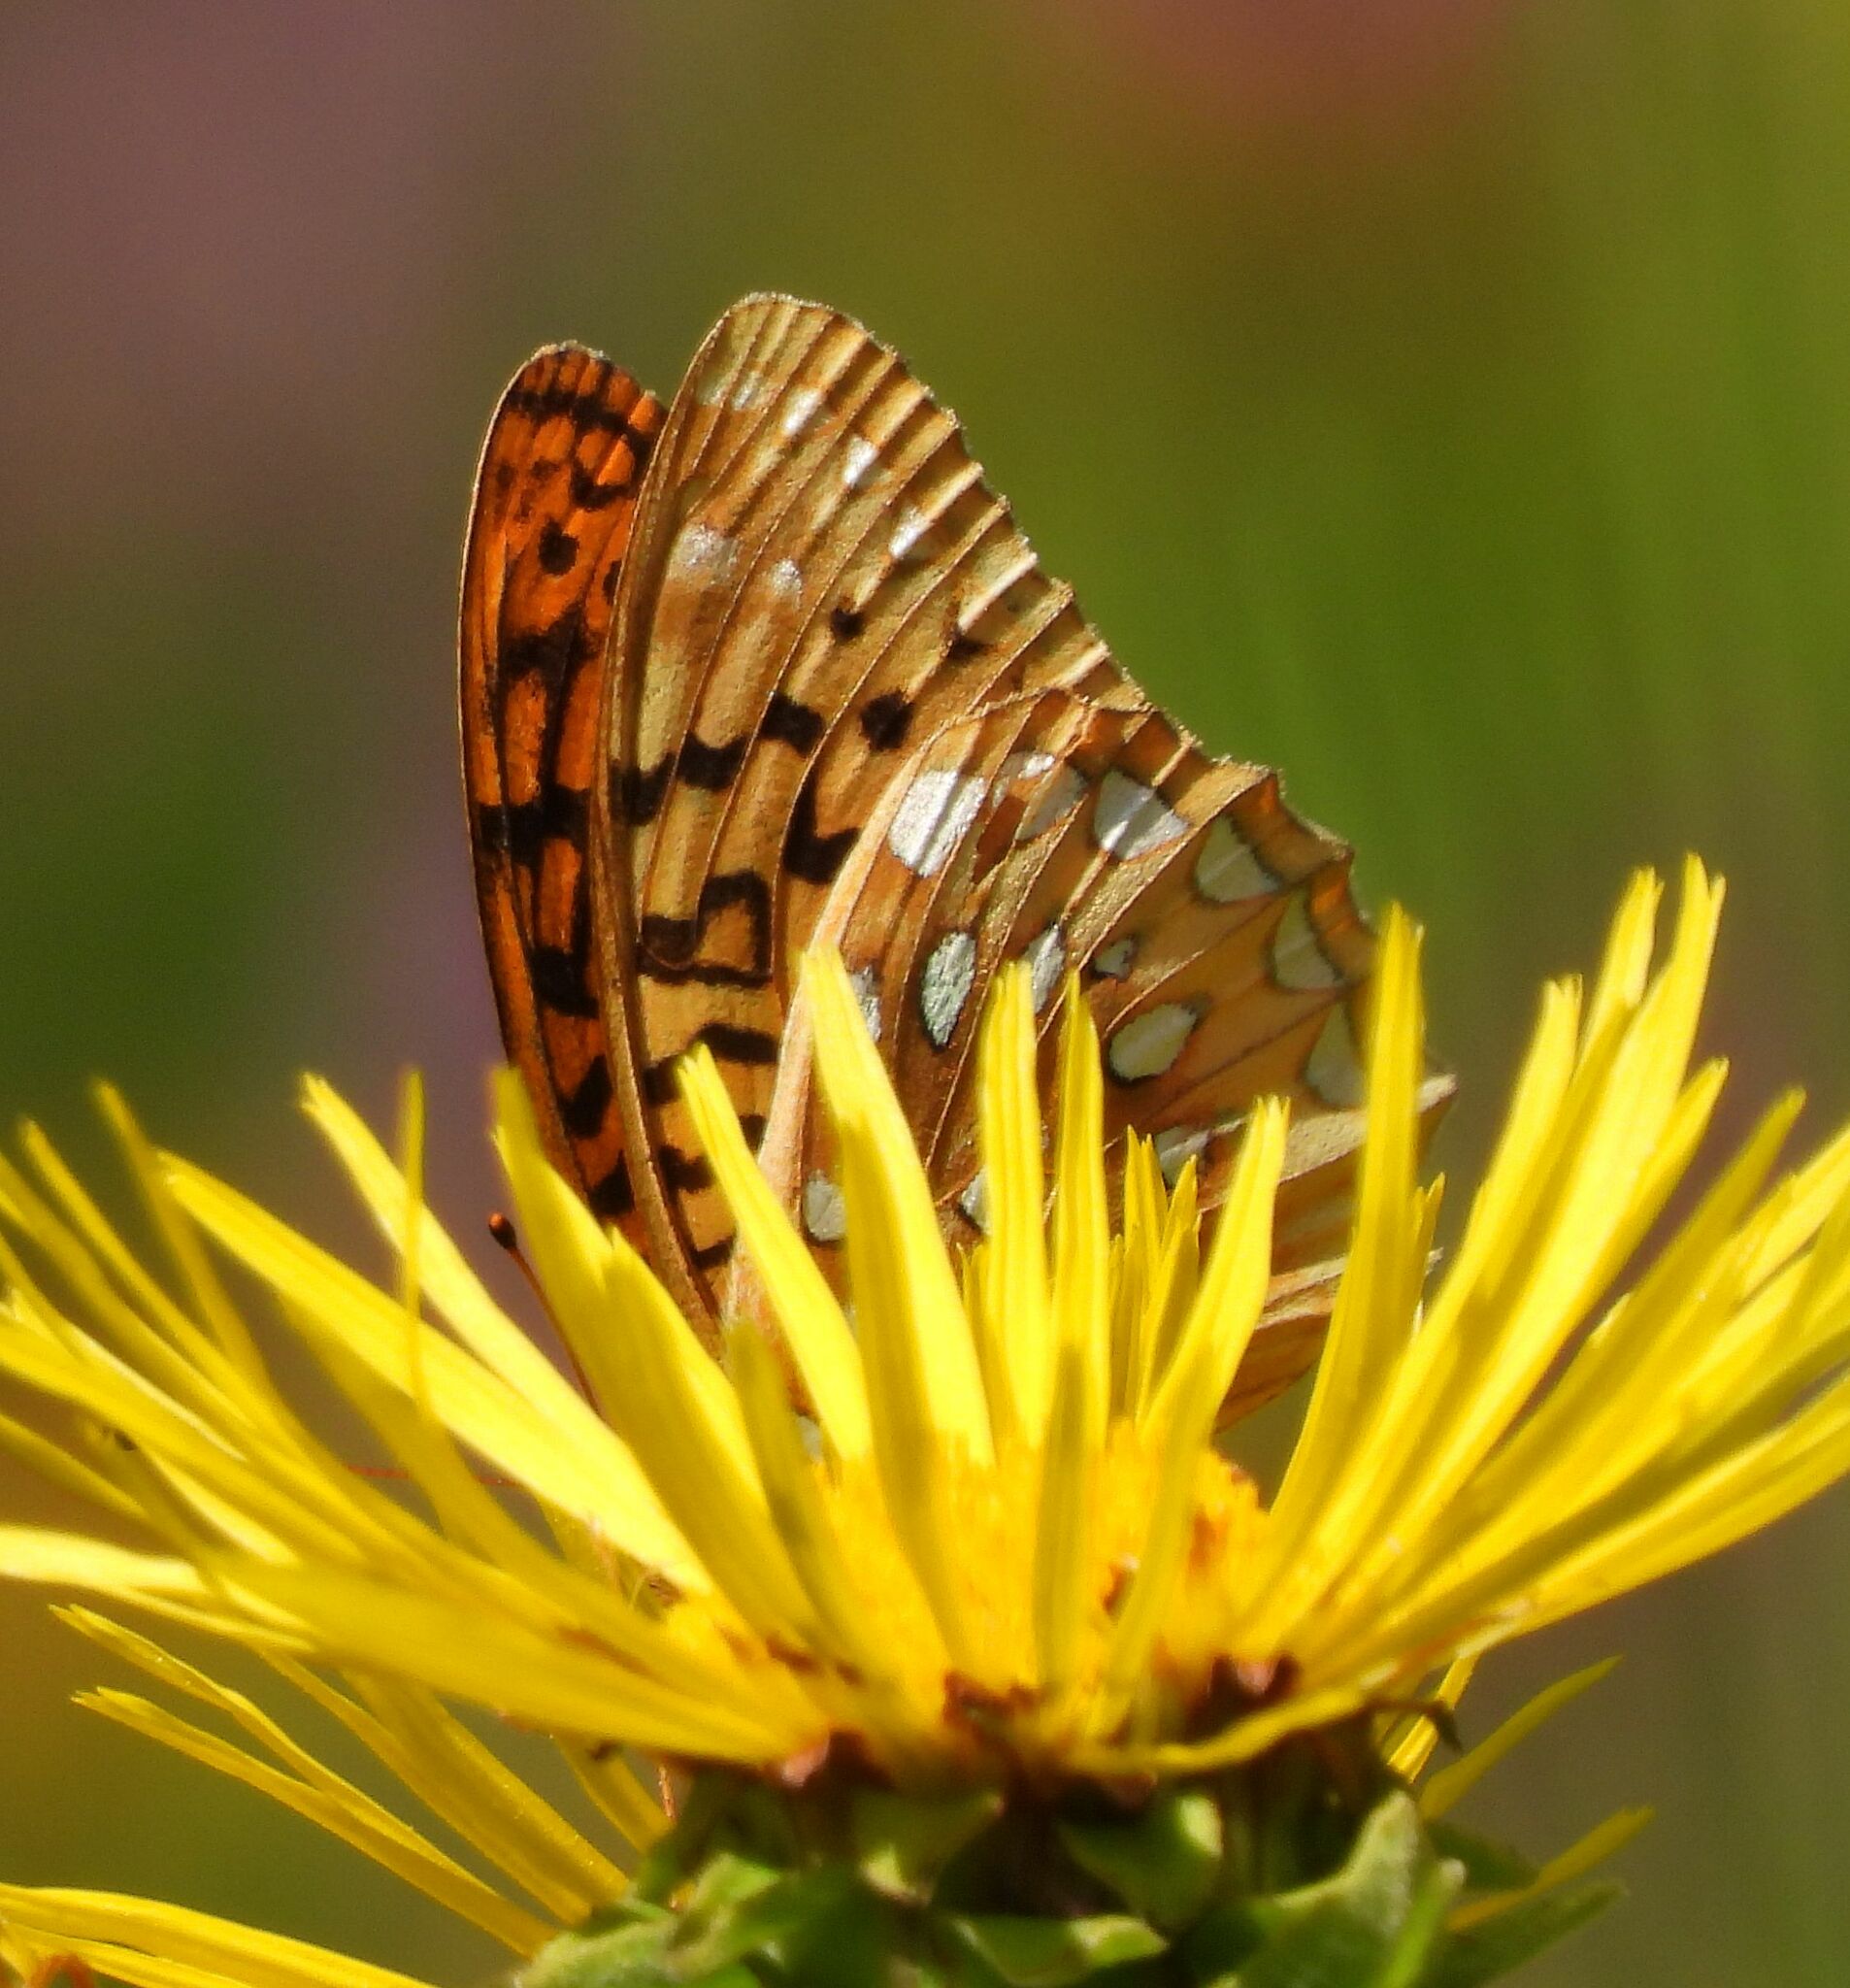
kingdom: Animalia
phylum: Arthropoda
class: Insecta
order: Lepidoptera
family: Nymphalidae
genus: Speyeria
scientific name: Speyeria cybele
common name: Great spangled fritillary
